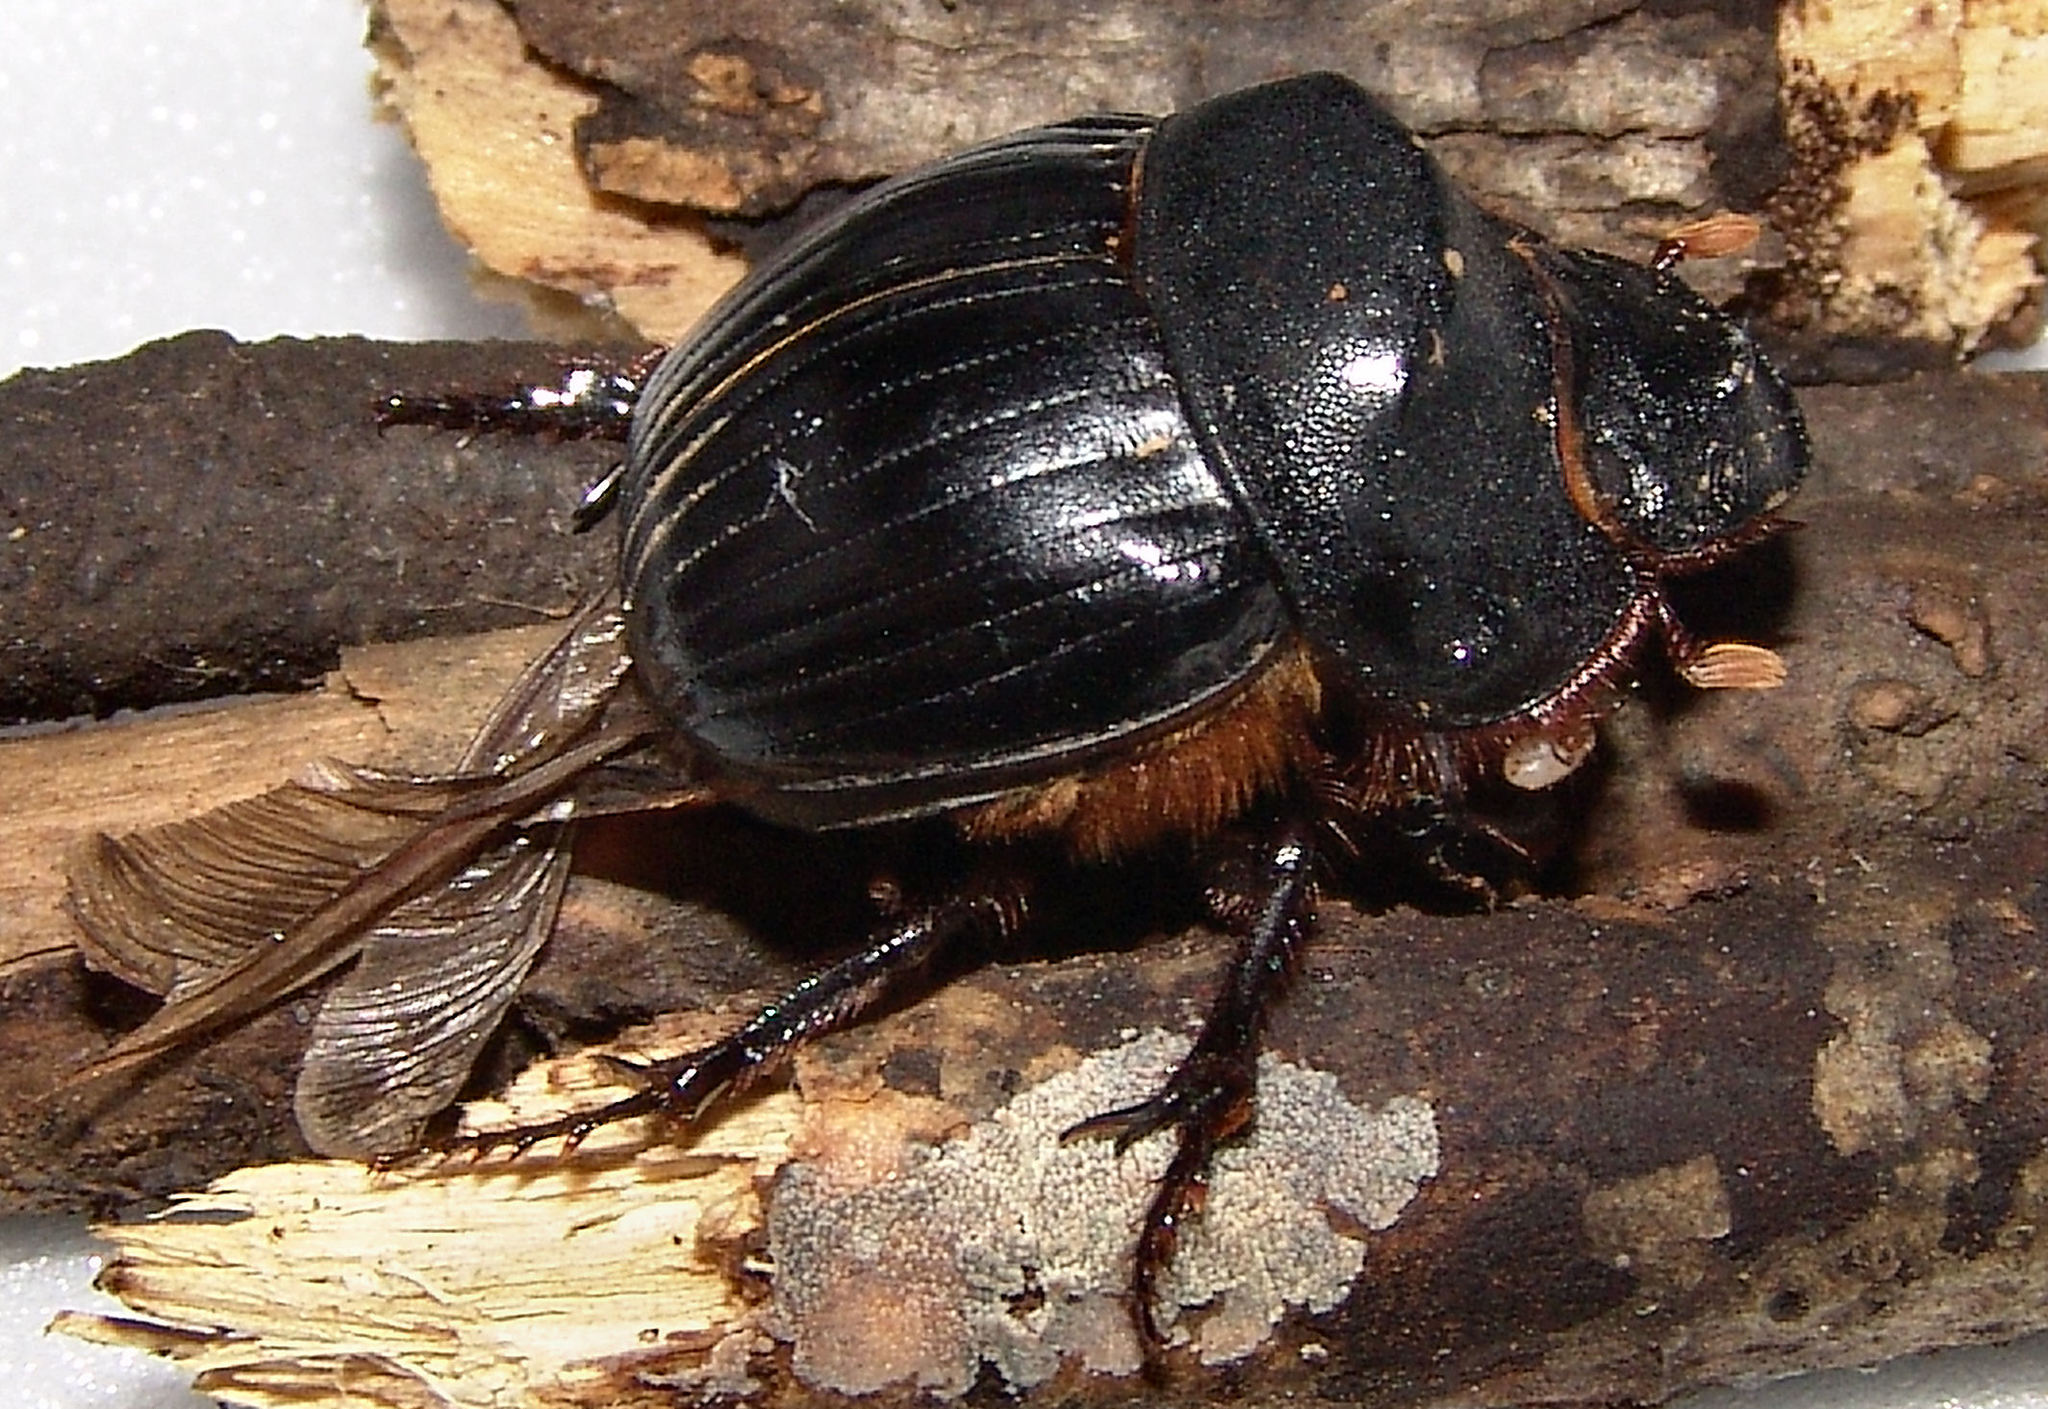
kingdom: Animalia
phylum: Arthropoda
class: Insecta
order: Coleoptera
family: Scarabaeidae
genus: Dichotomius
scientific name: Dichotomius carolinus
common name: Carolina copris
